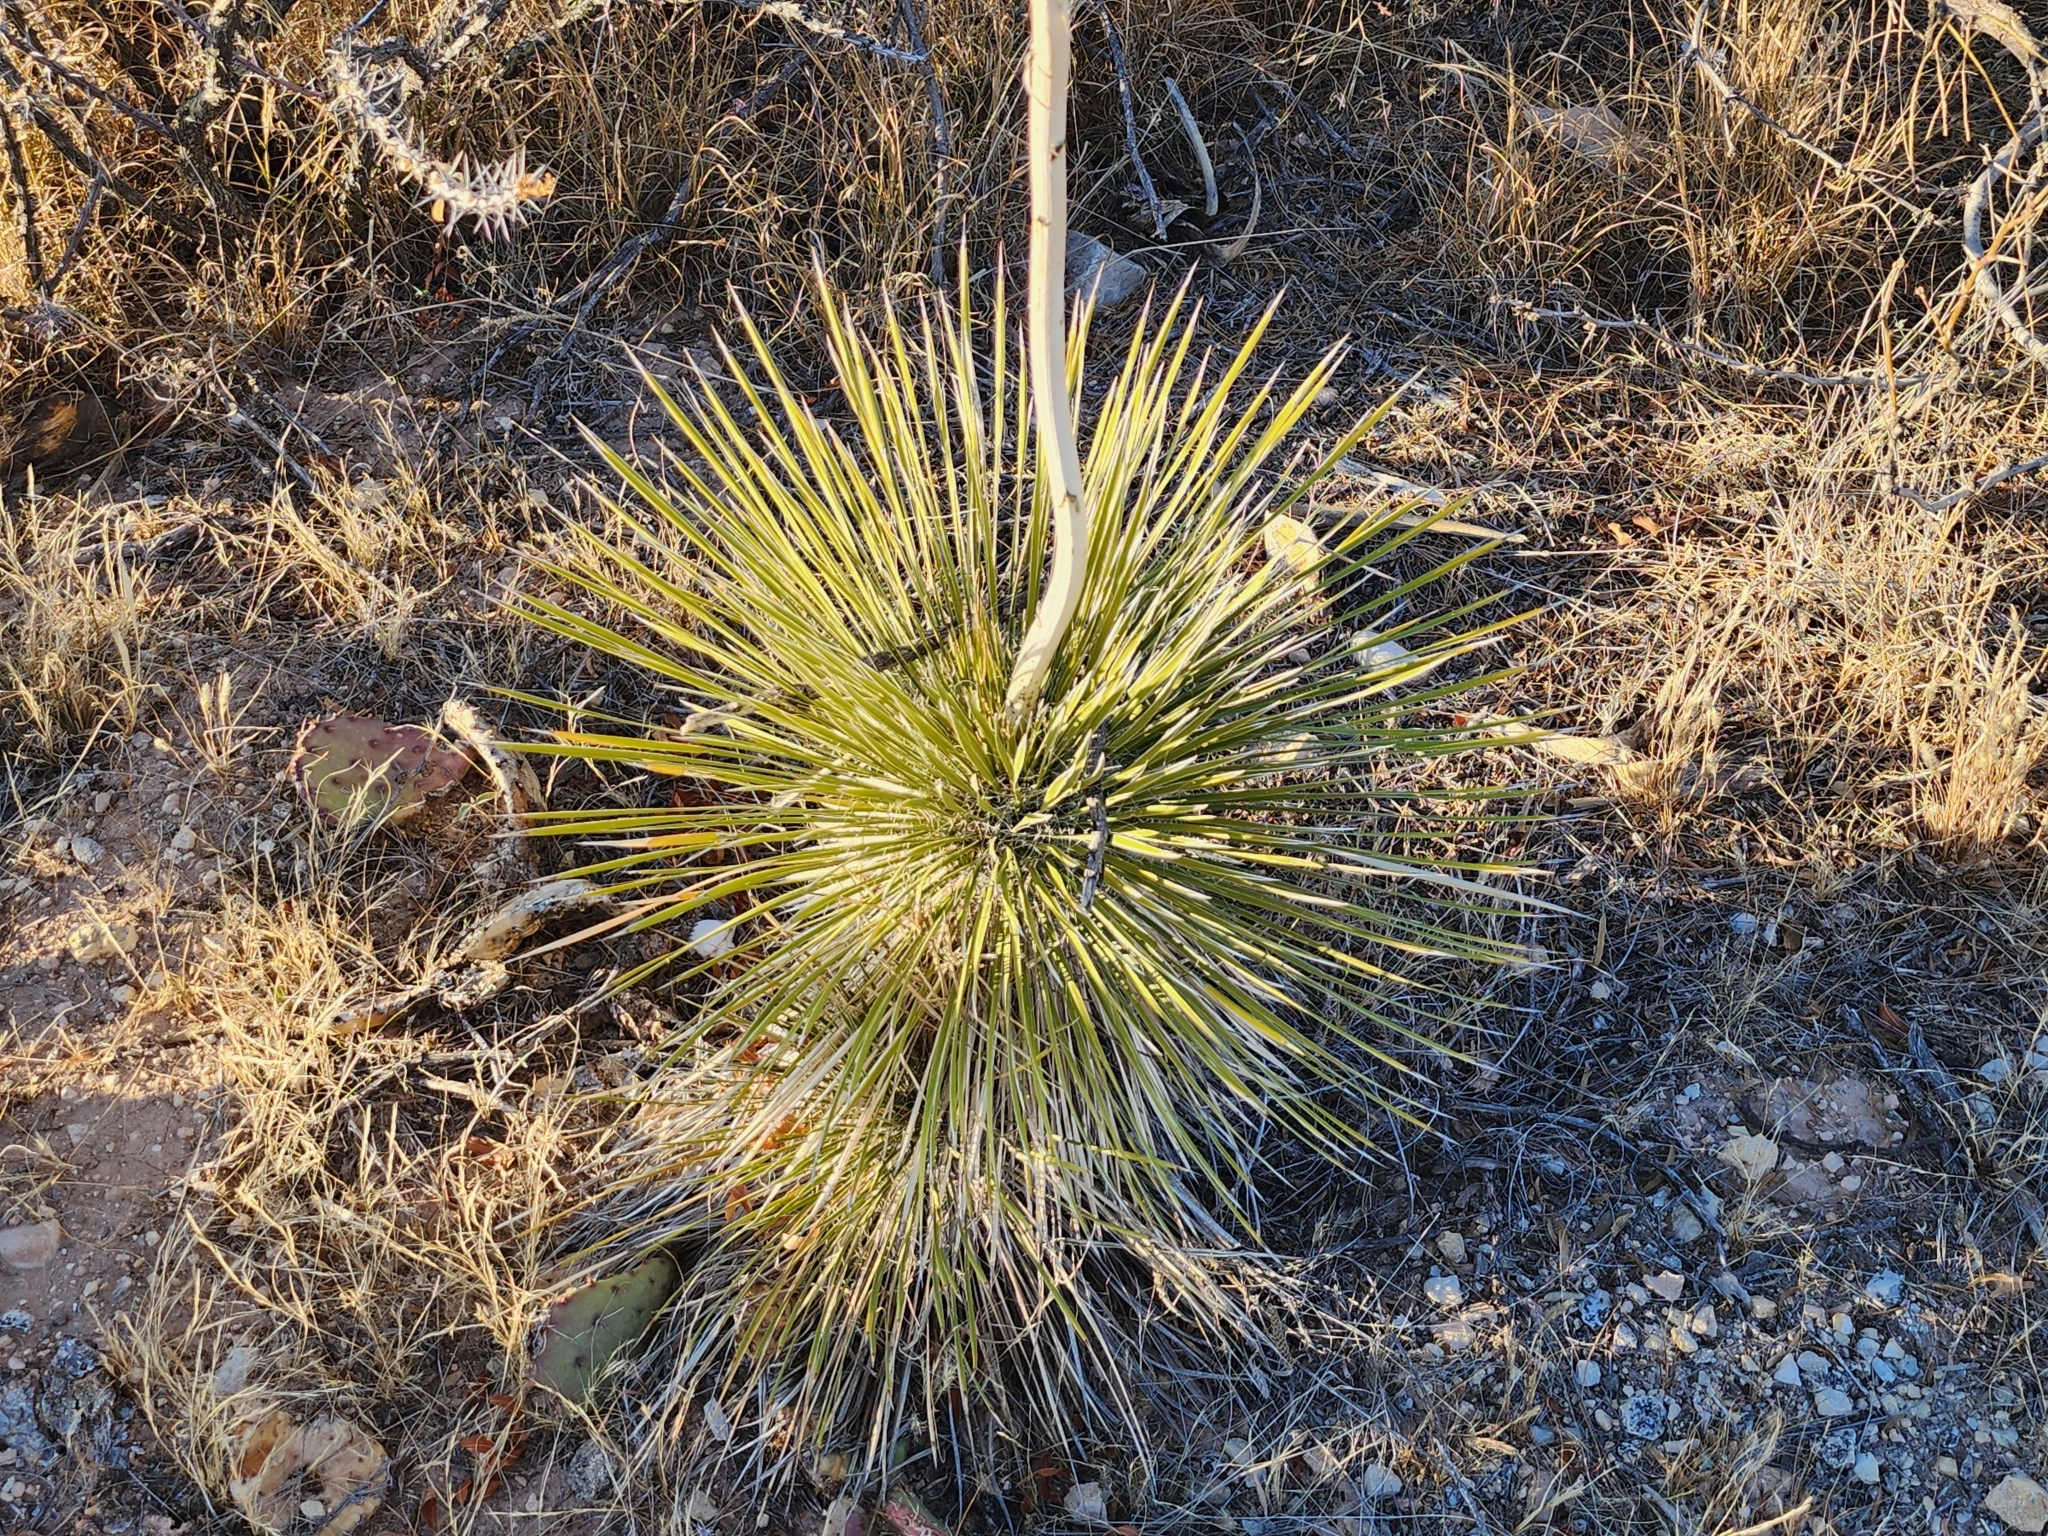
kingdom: Plantae
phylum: Tracheophyta
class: Liliopsida
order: Asparagales
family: Asparagaceae
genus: Yucca
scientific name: Yucca elata
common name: Palmella
